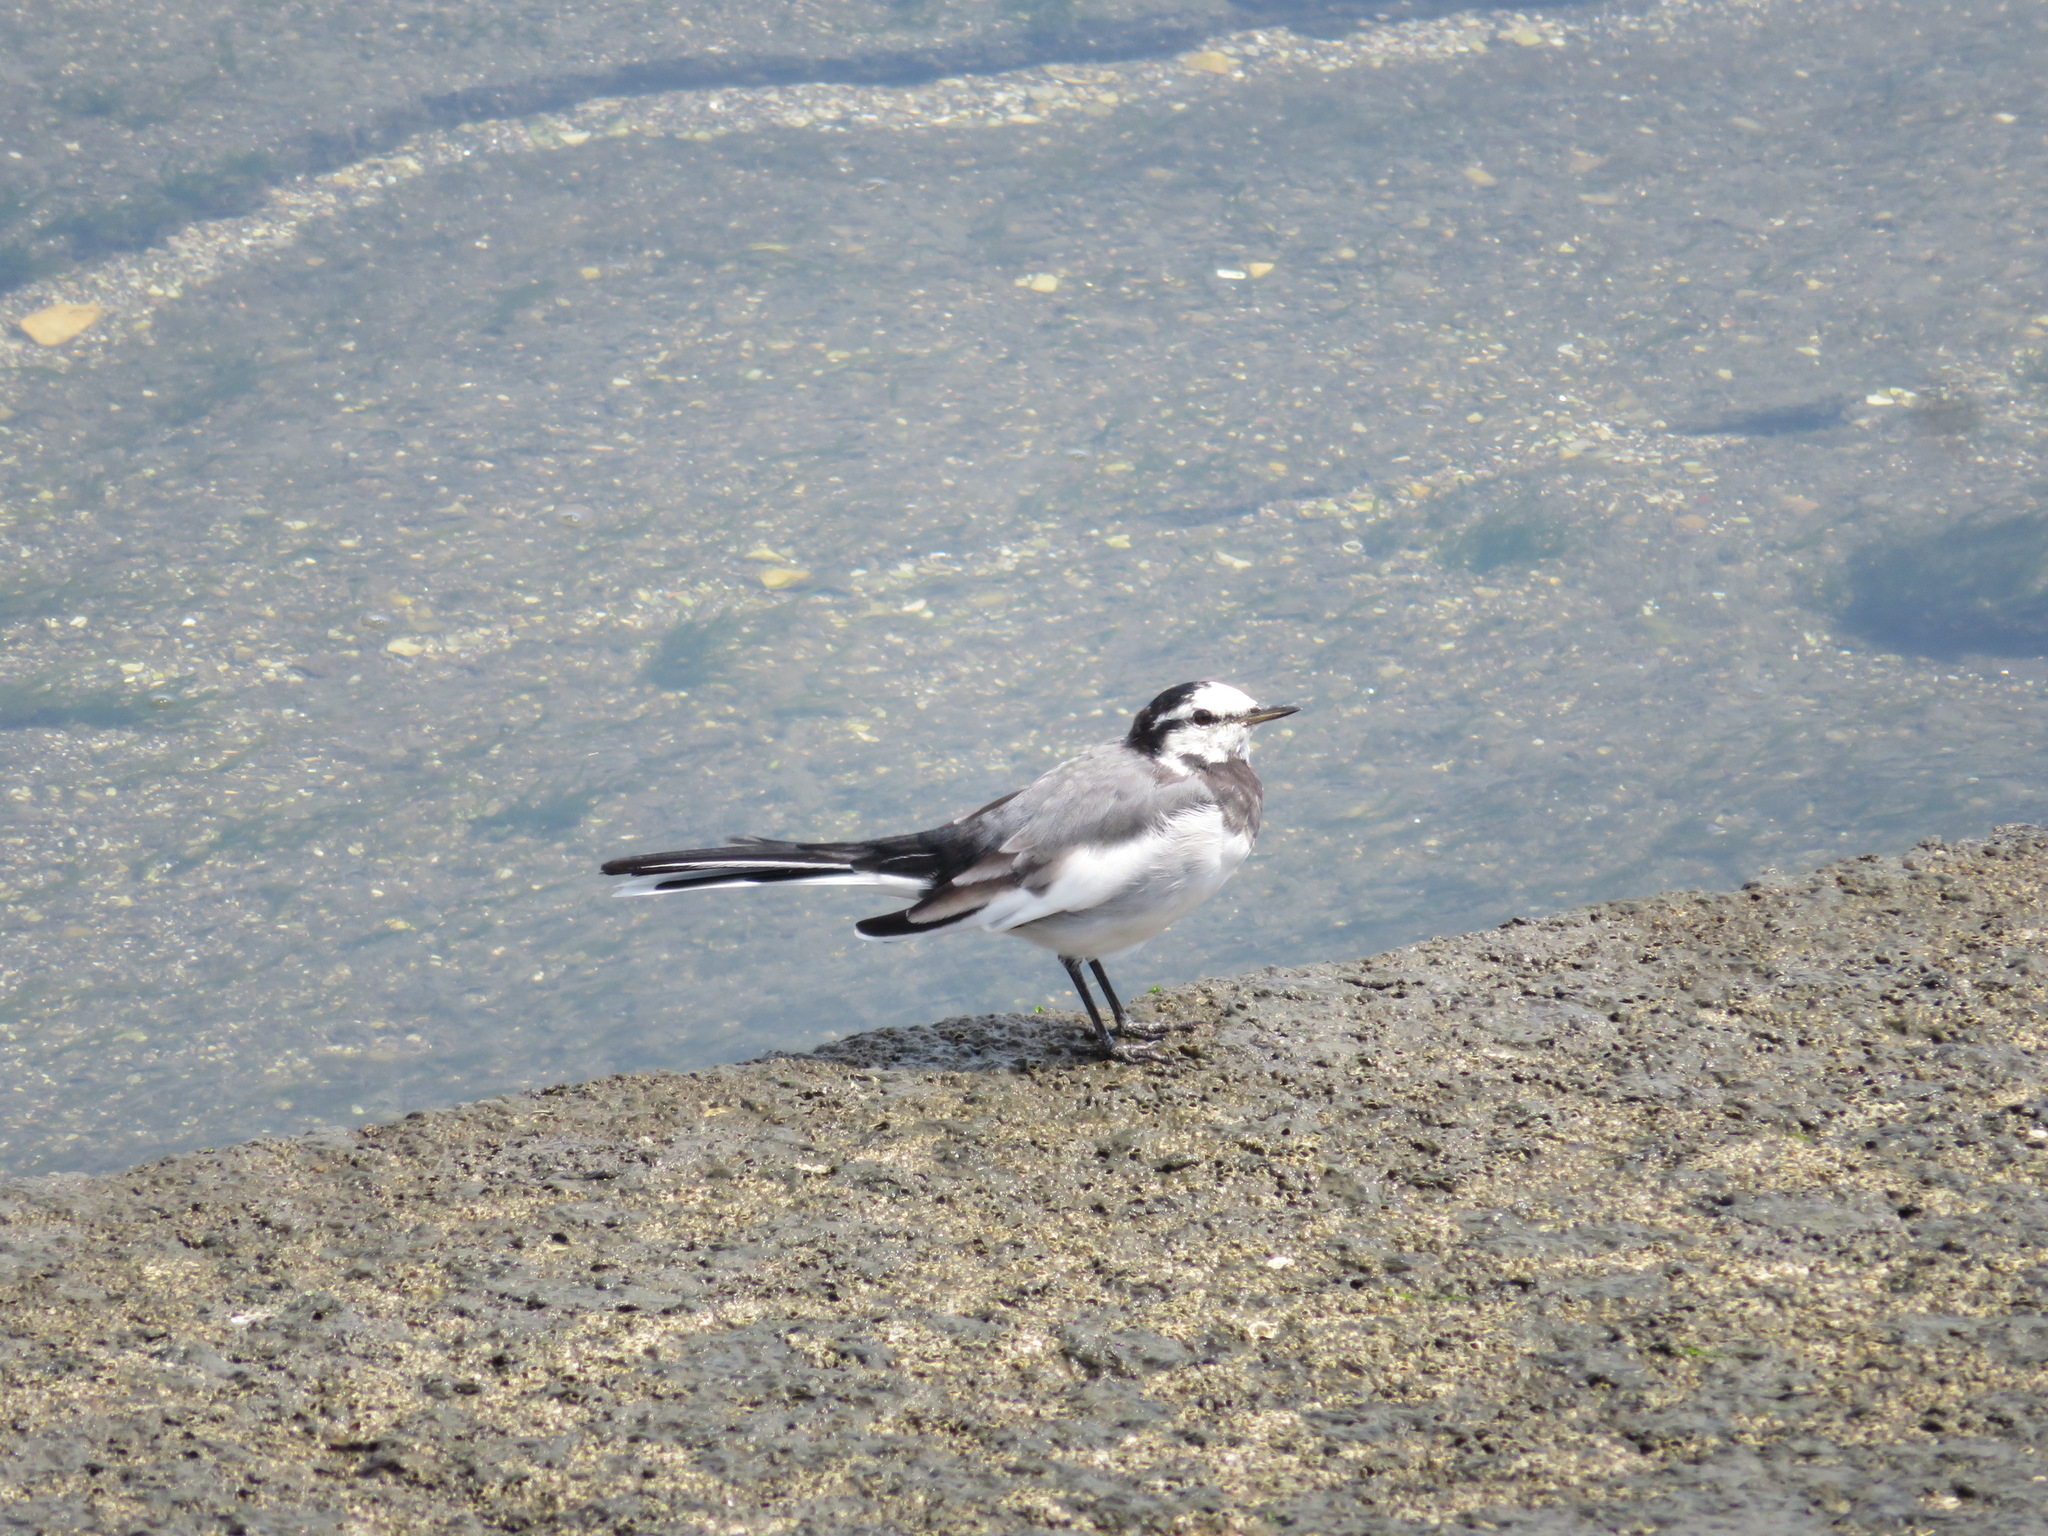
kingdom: Animalia
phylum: Chordata
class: Aves
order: Passeriformes
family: Motacillidae
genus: Motacilla
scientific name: Motacilla alba
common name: White wagtail
